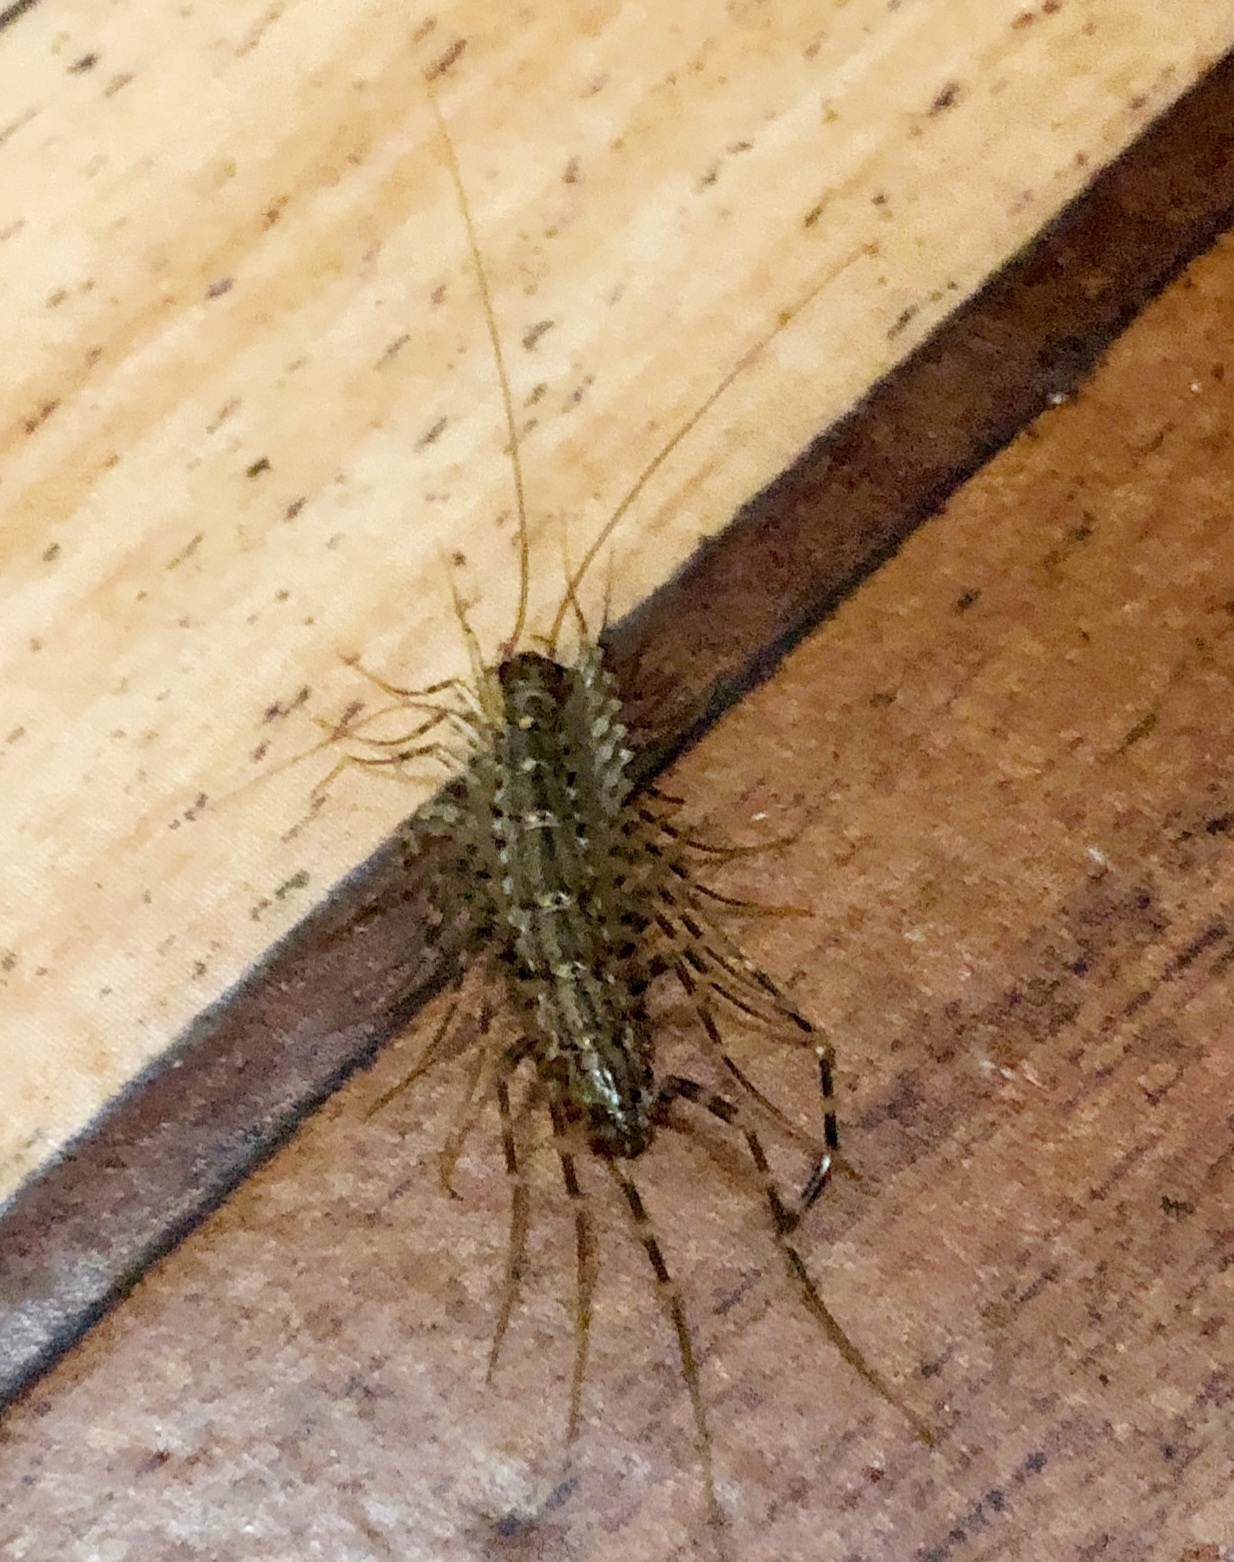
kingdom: Animalia
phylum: Arthropoda
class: Chilopoda
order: Scutigeromorpha
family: Scutigeridae
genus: Scutigera
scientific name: Scutigera coleoptrata
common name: House centipede
